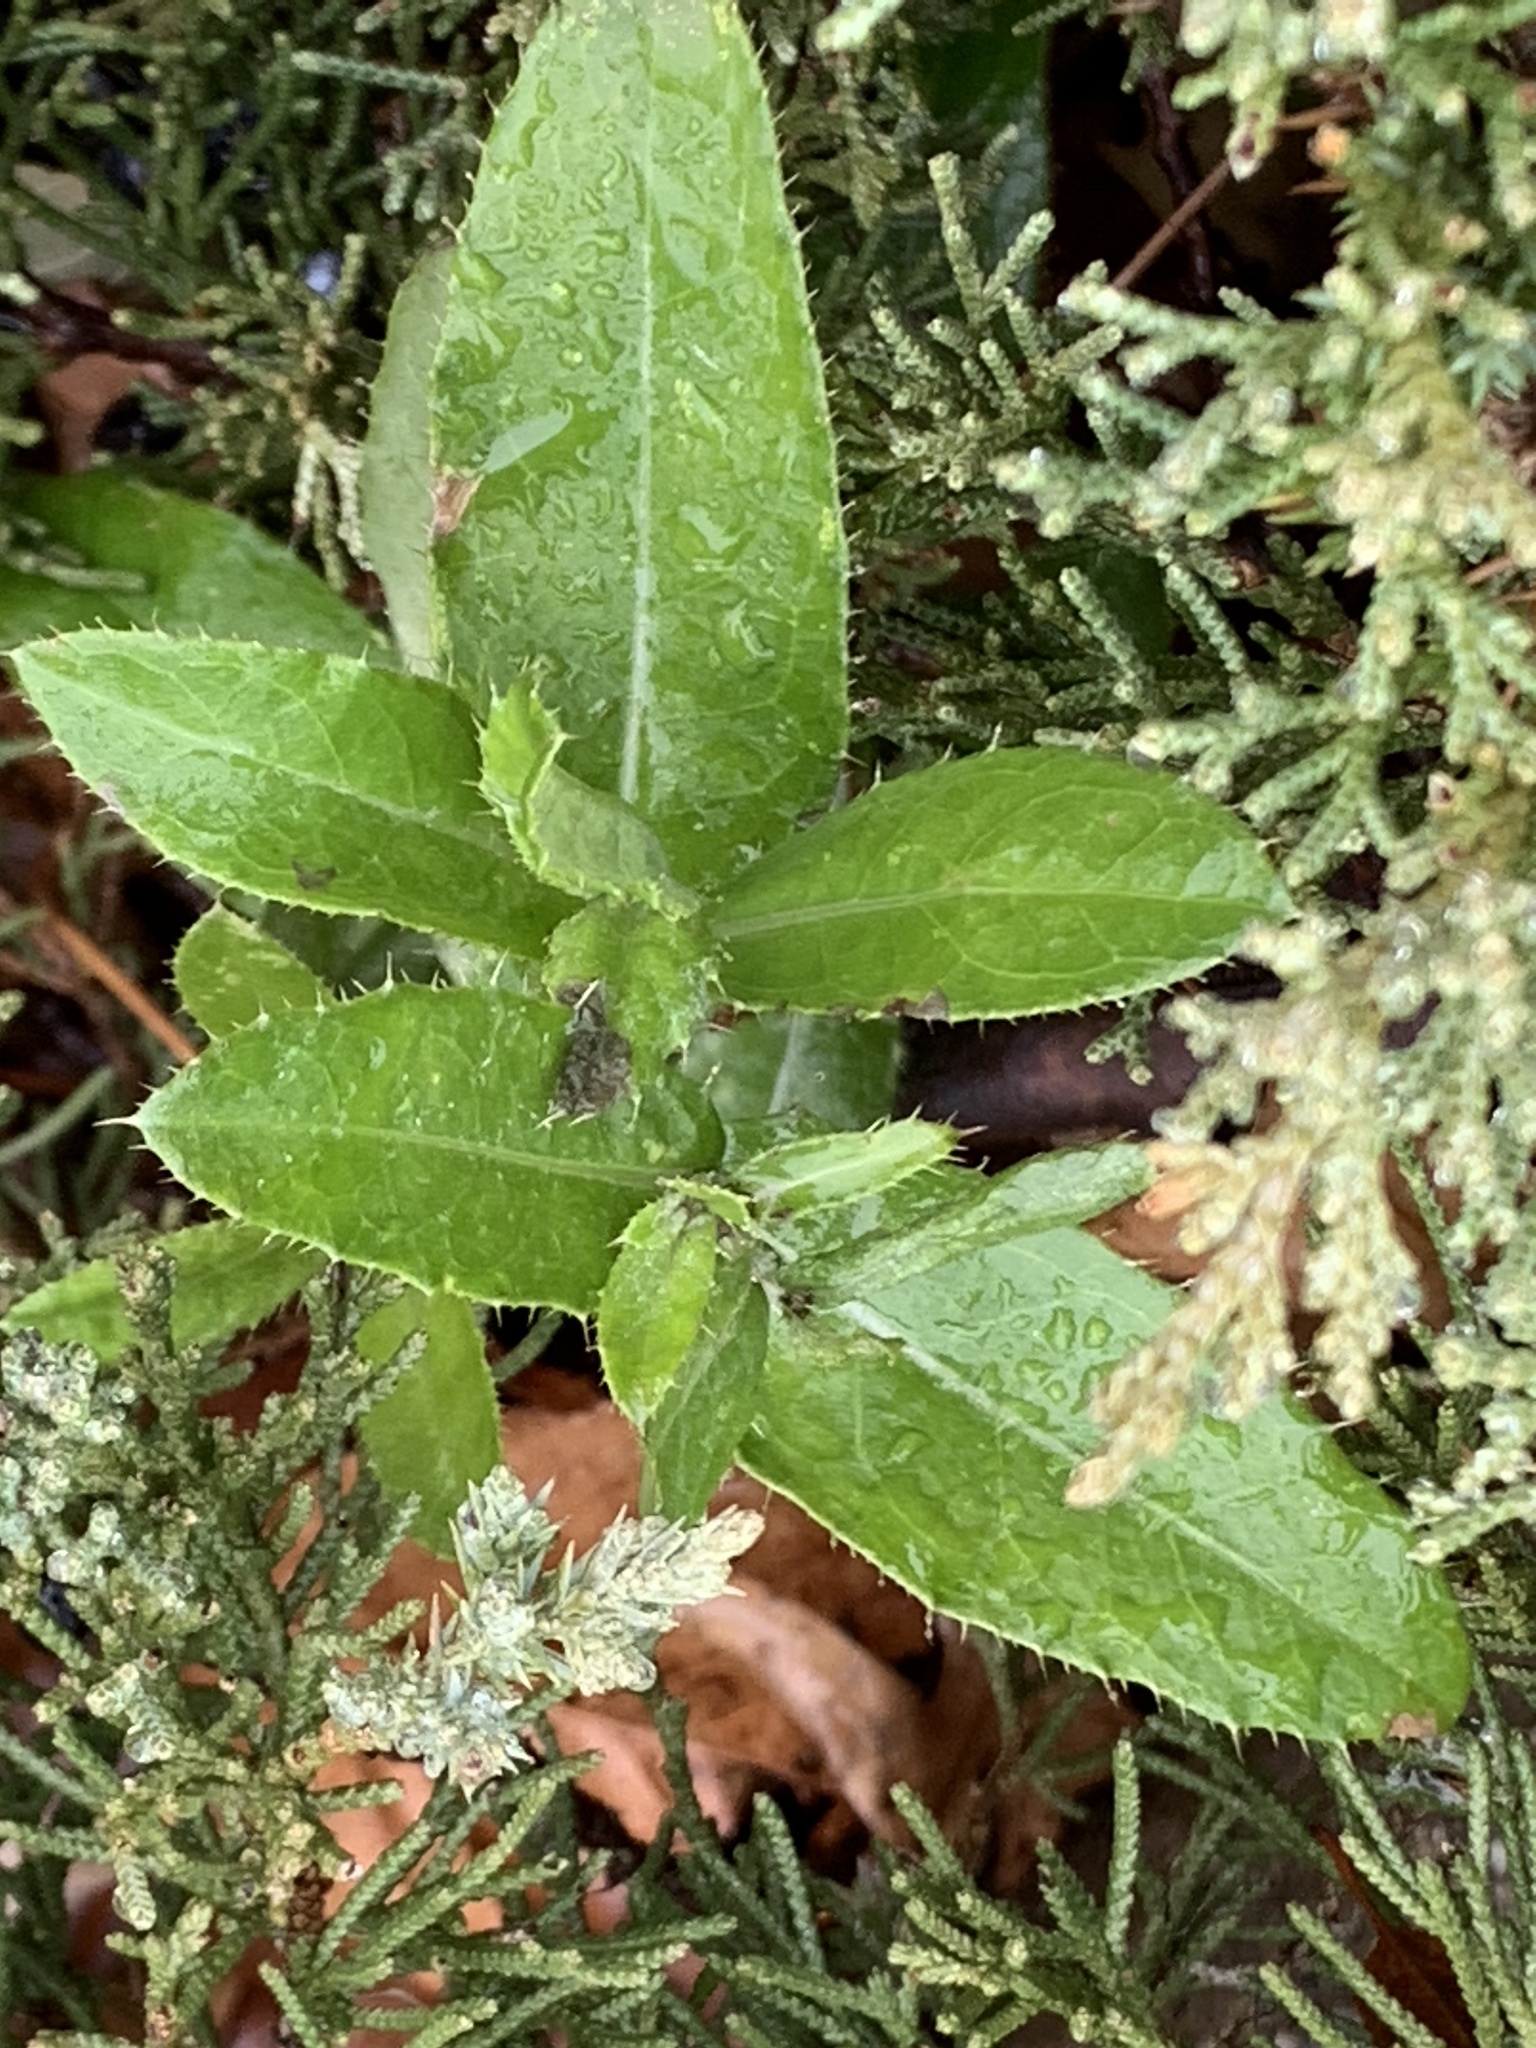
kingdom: Plantae
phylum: Tracheophyta
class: Magnoliopsida
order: Asterales
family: Asteraceae
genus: Cirsium
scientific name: Cirsium arvense
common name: Creeping thistle
